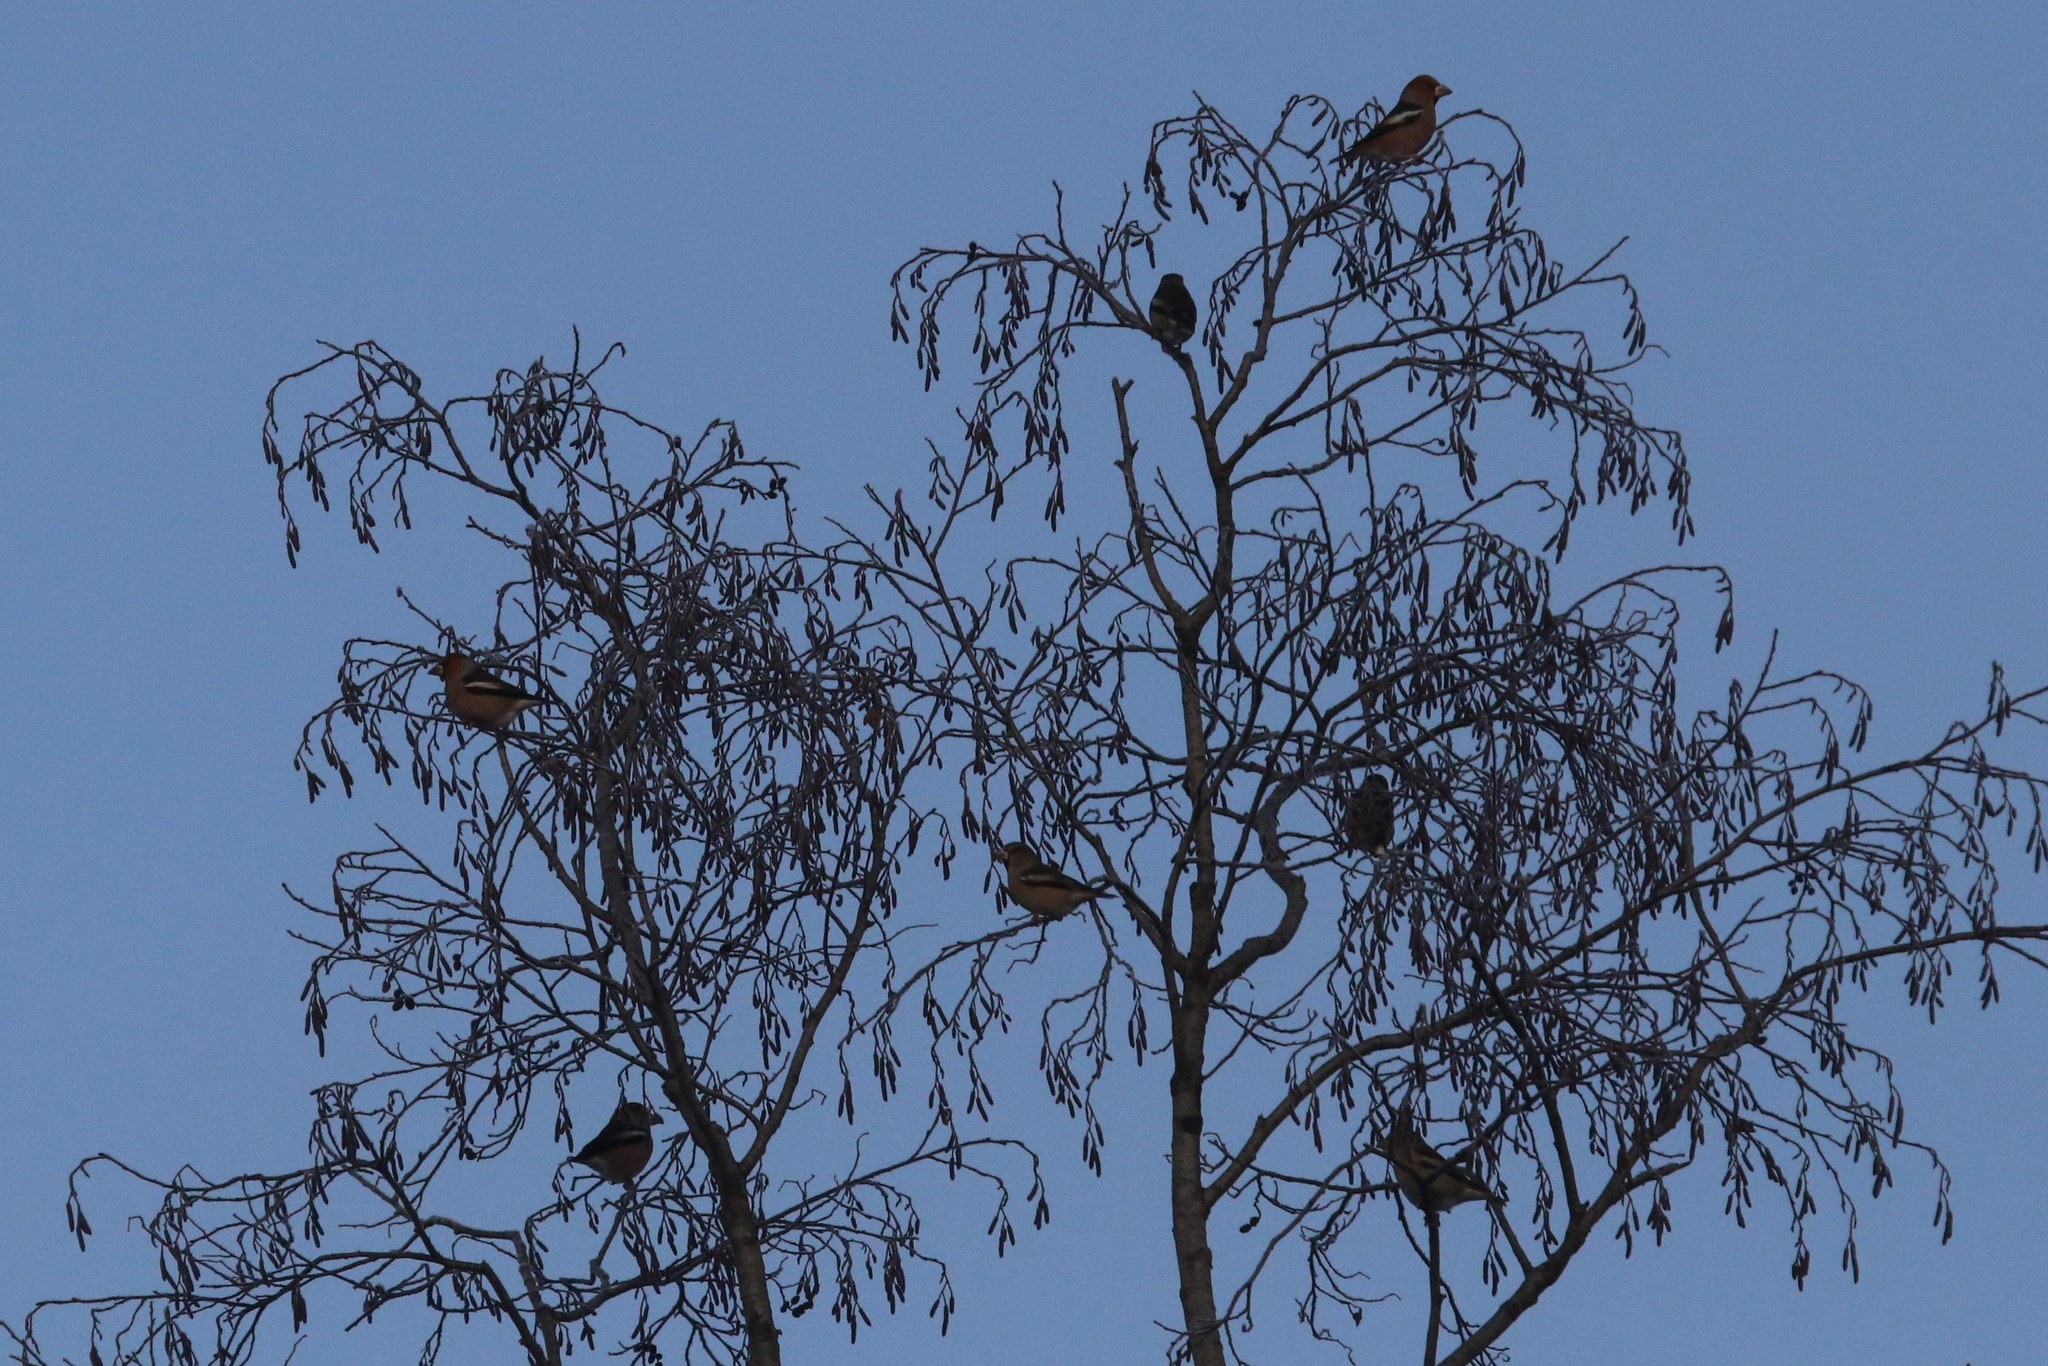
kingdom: Animalia
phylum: Chordata
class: Aves
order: Passeriformes
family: Fringillidae
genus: Coccothraustes
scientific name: Coccothraustes coccothraustes
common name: Hawfinch
